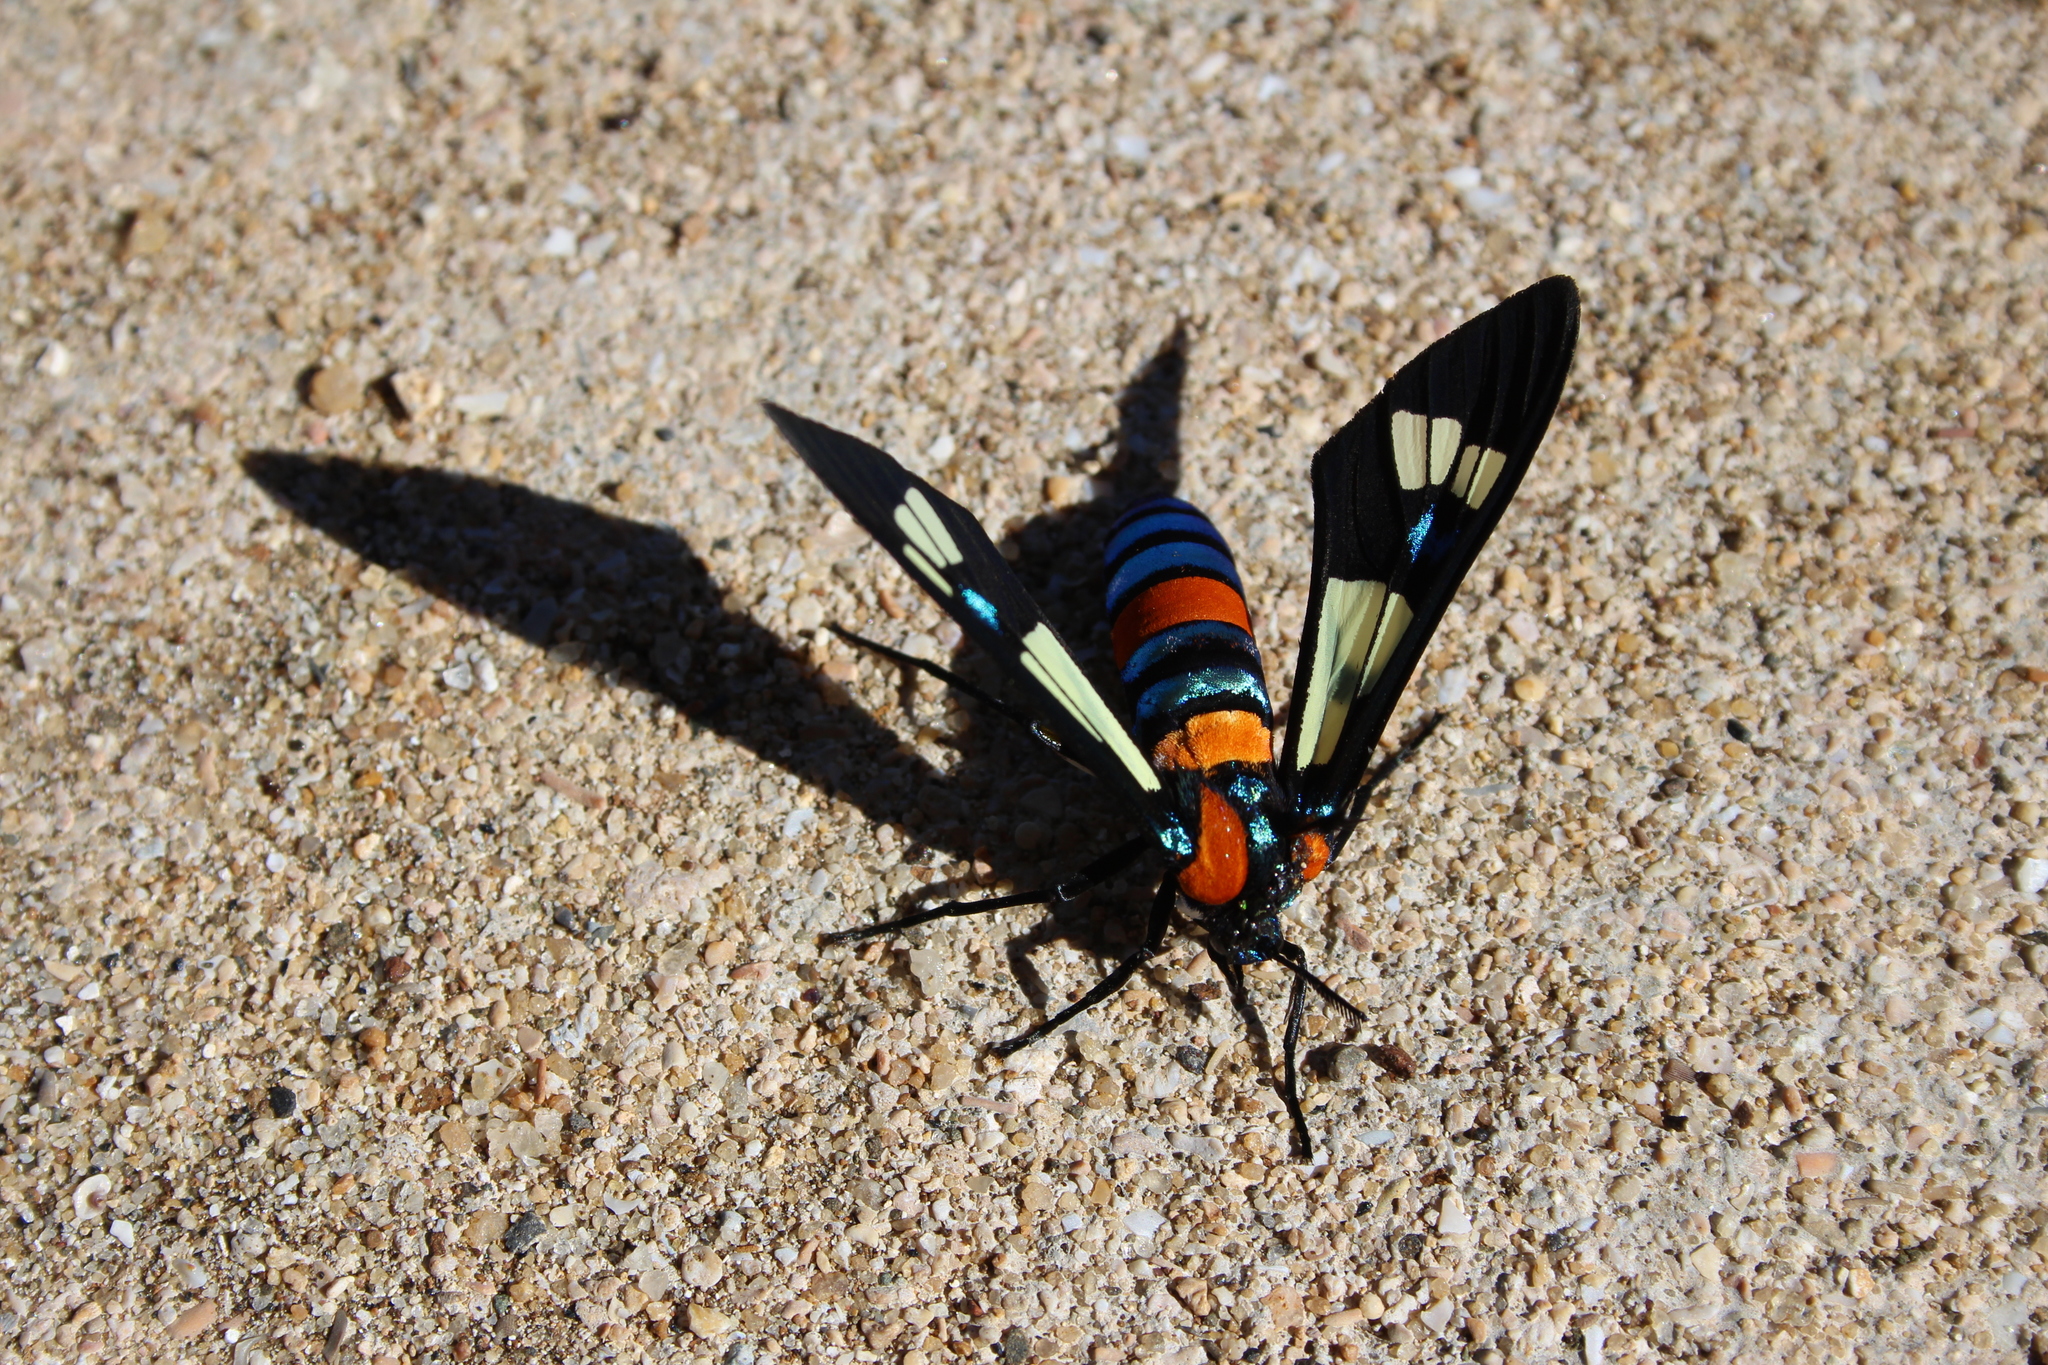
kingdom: Animalia
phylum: Arthropoda
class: Insecta
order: Lepidoptera
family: Erebidae
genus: Euchromia
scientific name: Euchromia folletii
